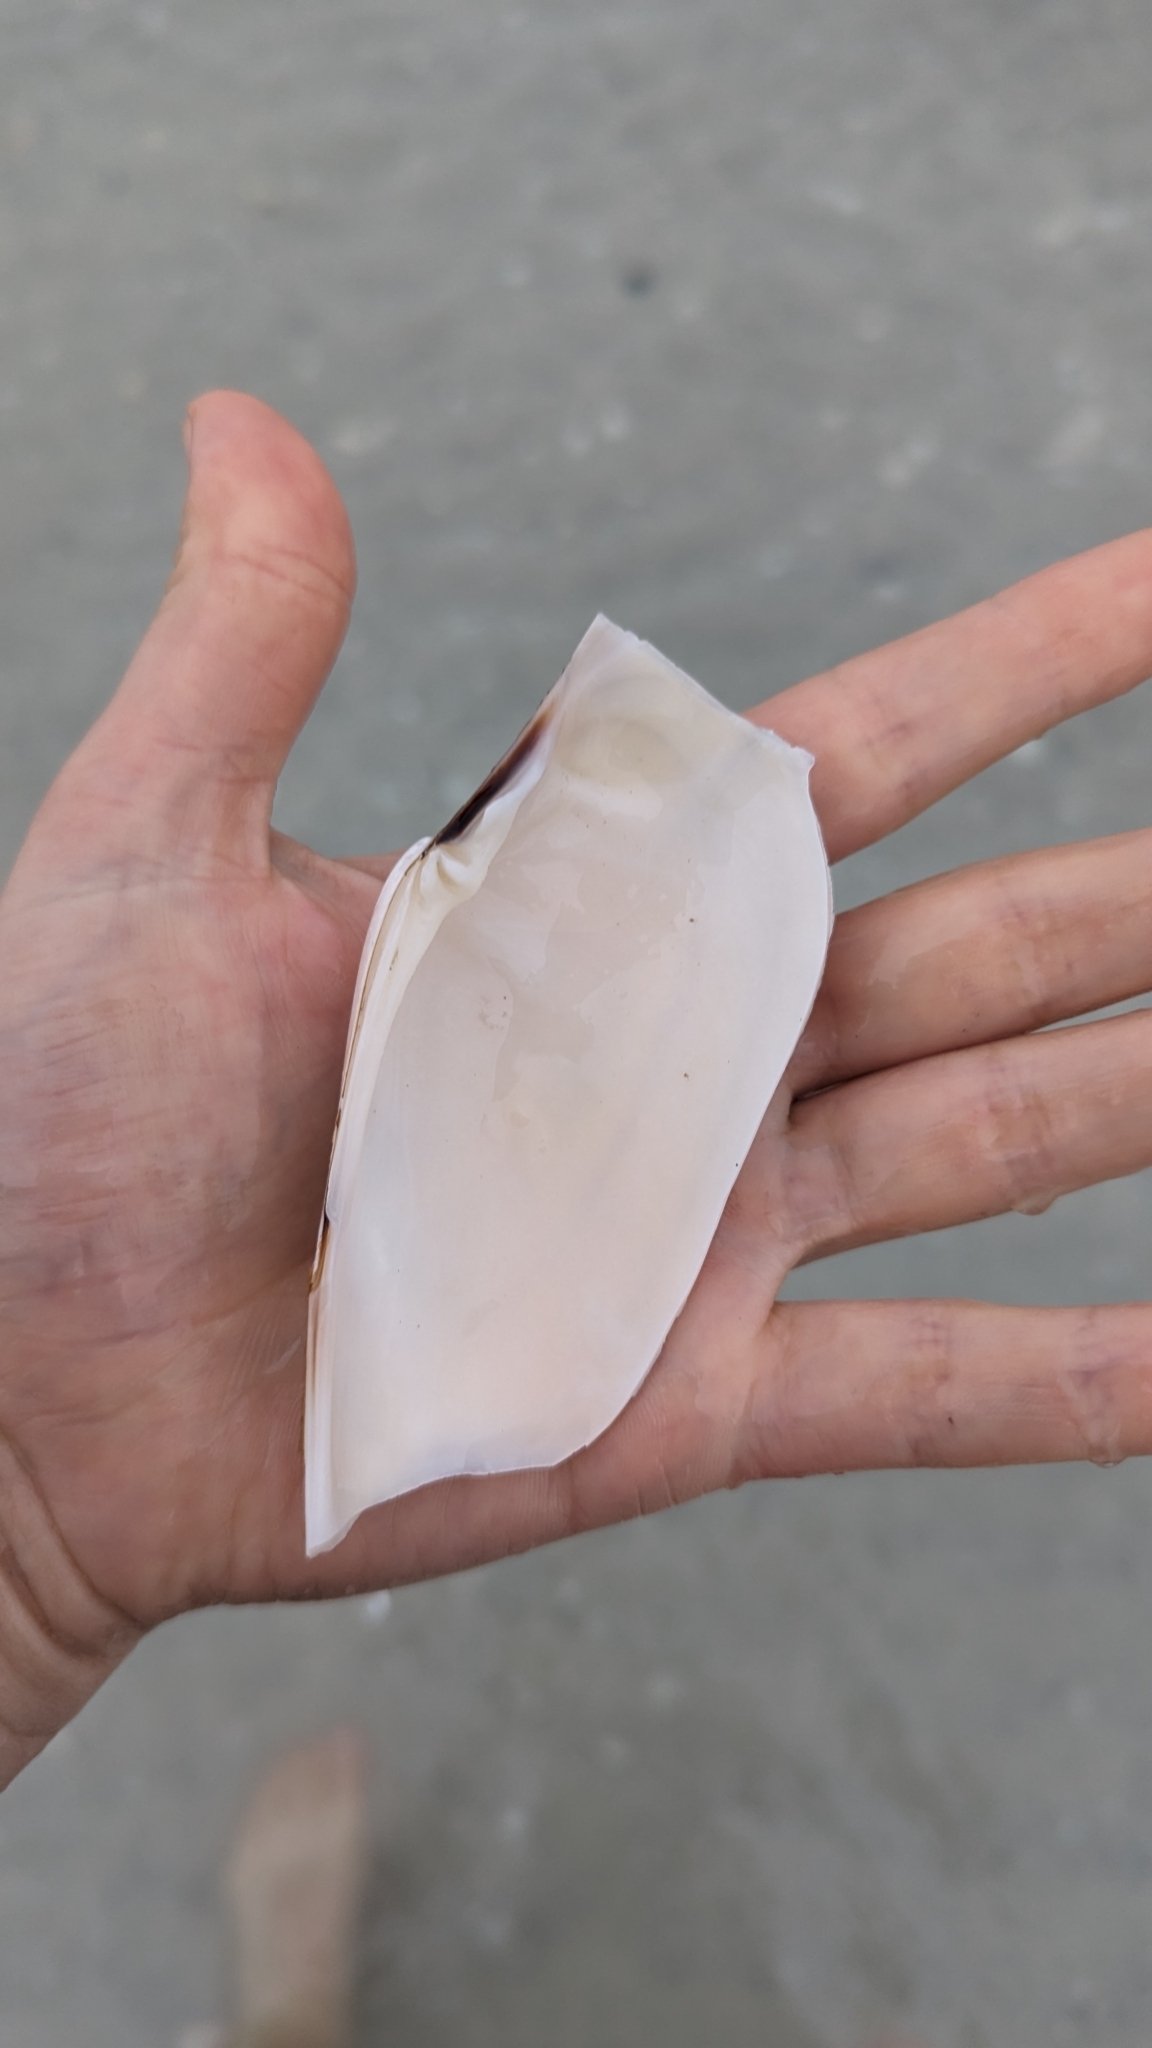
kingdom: Animalia
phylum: Mollusca
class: Bivalvia
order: Venerida
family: Veneridae
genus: Macrocallista
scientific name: Macrocallista nimbosa
